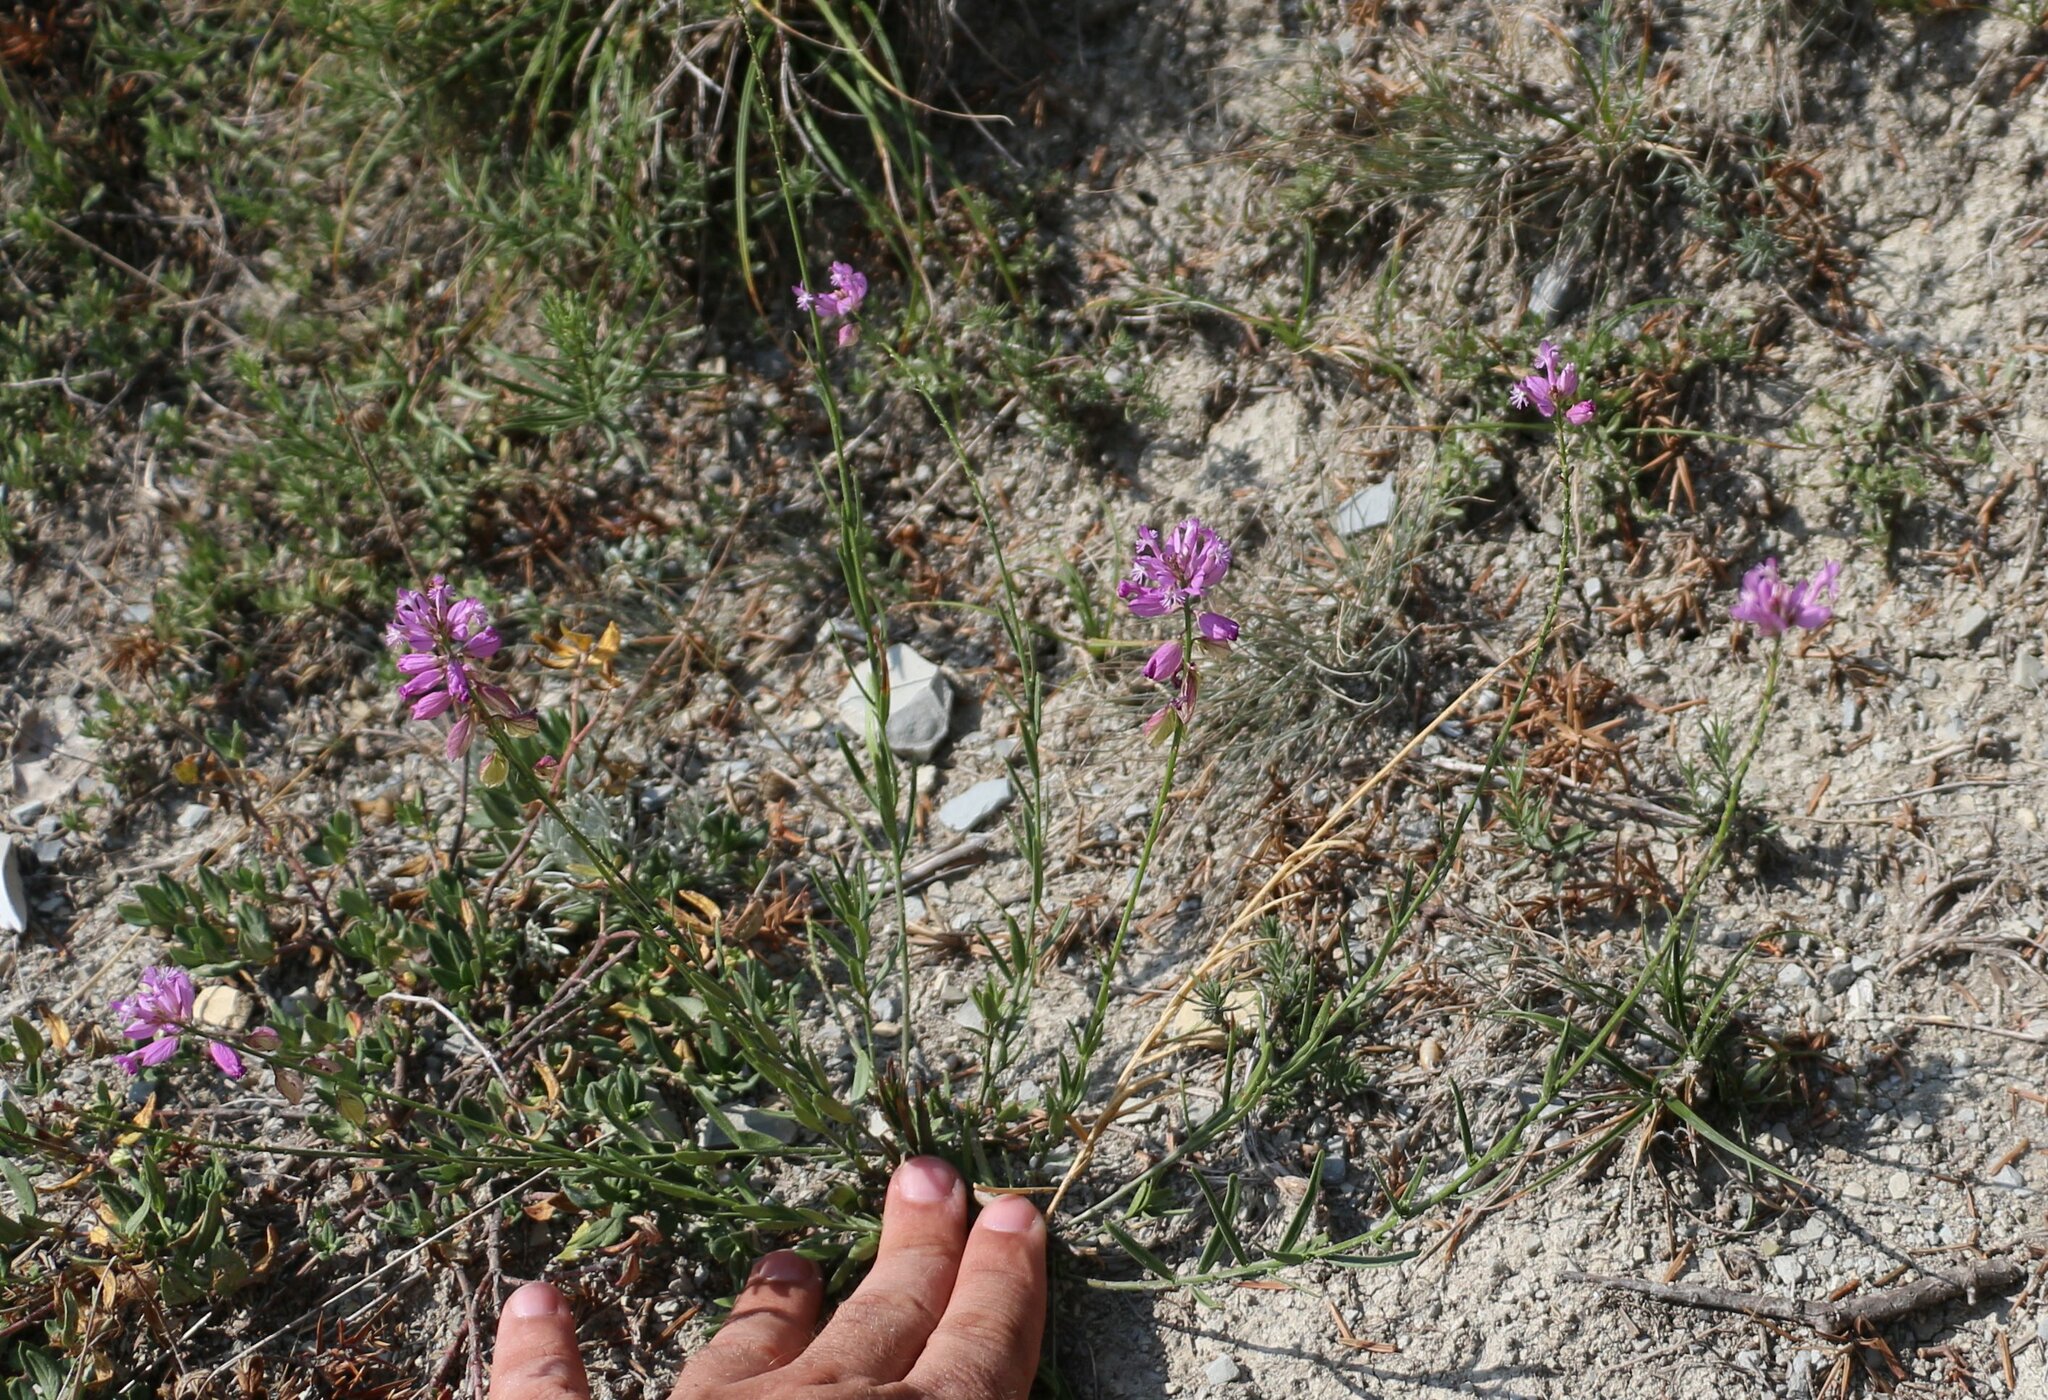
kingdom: Plantae
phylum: Tracheophyta
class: Magnoliopsida
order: Fabales
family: Polygalaceae
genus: Polygala
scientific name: Polygala major
